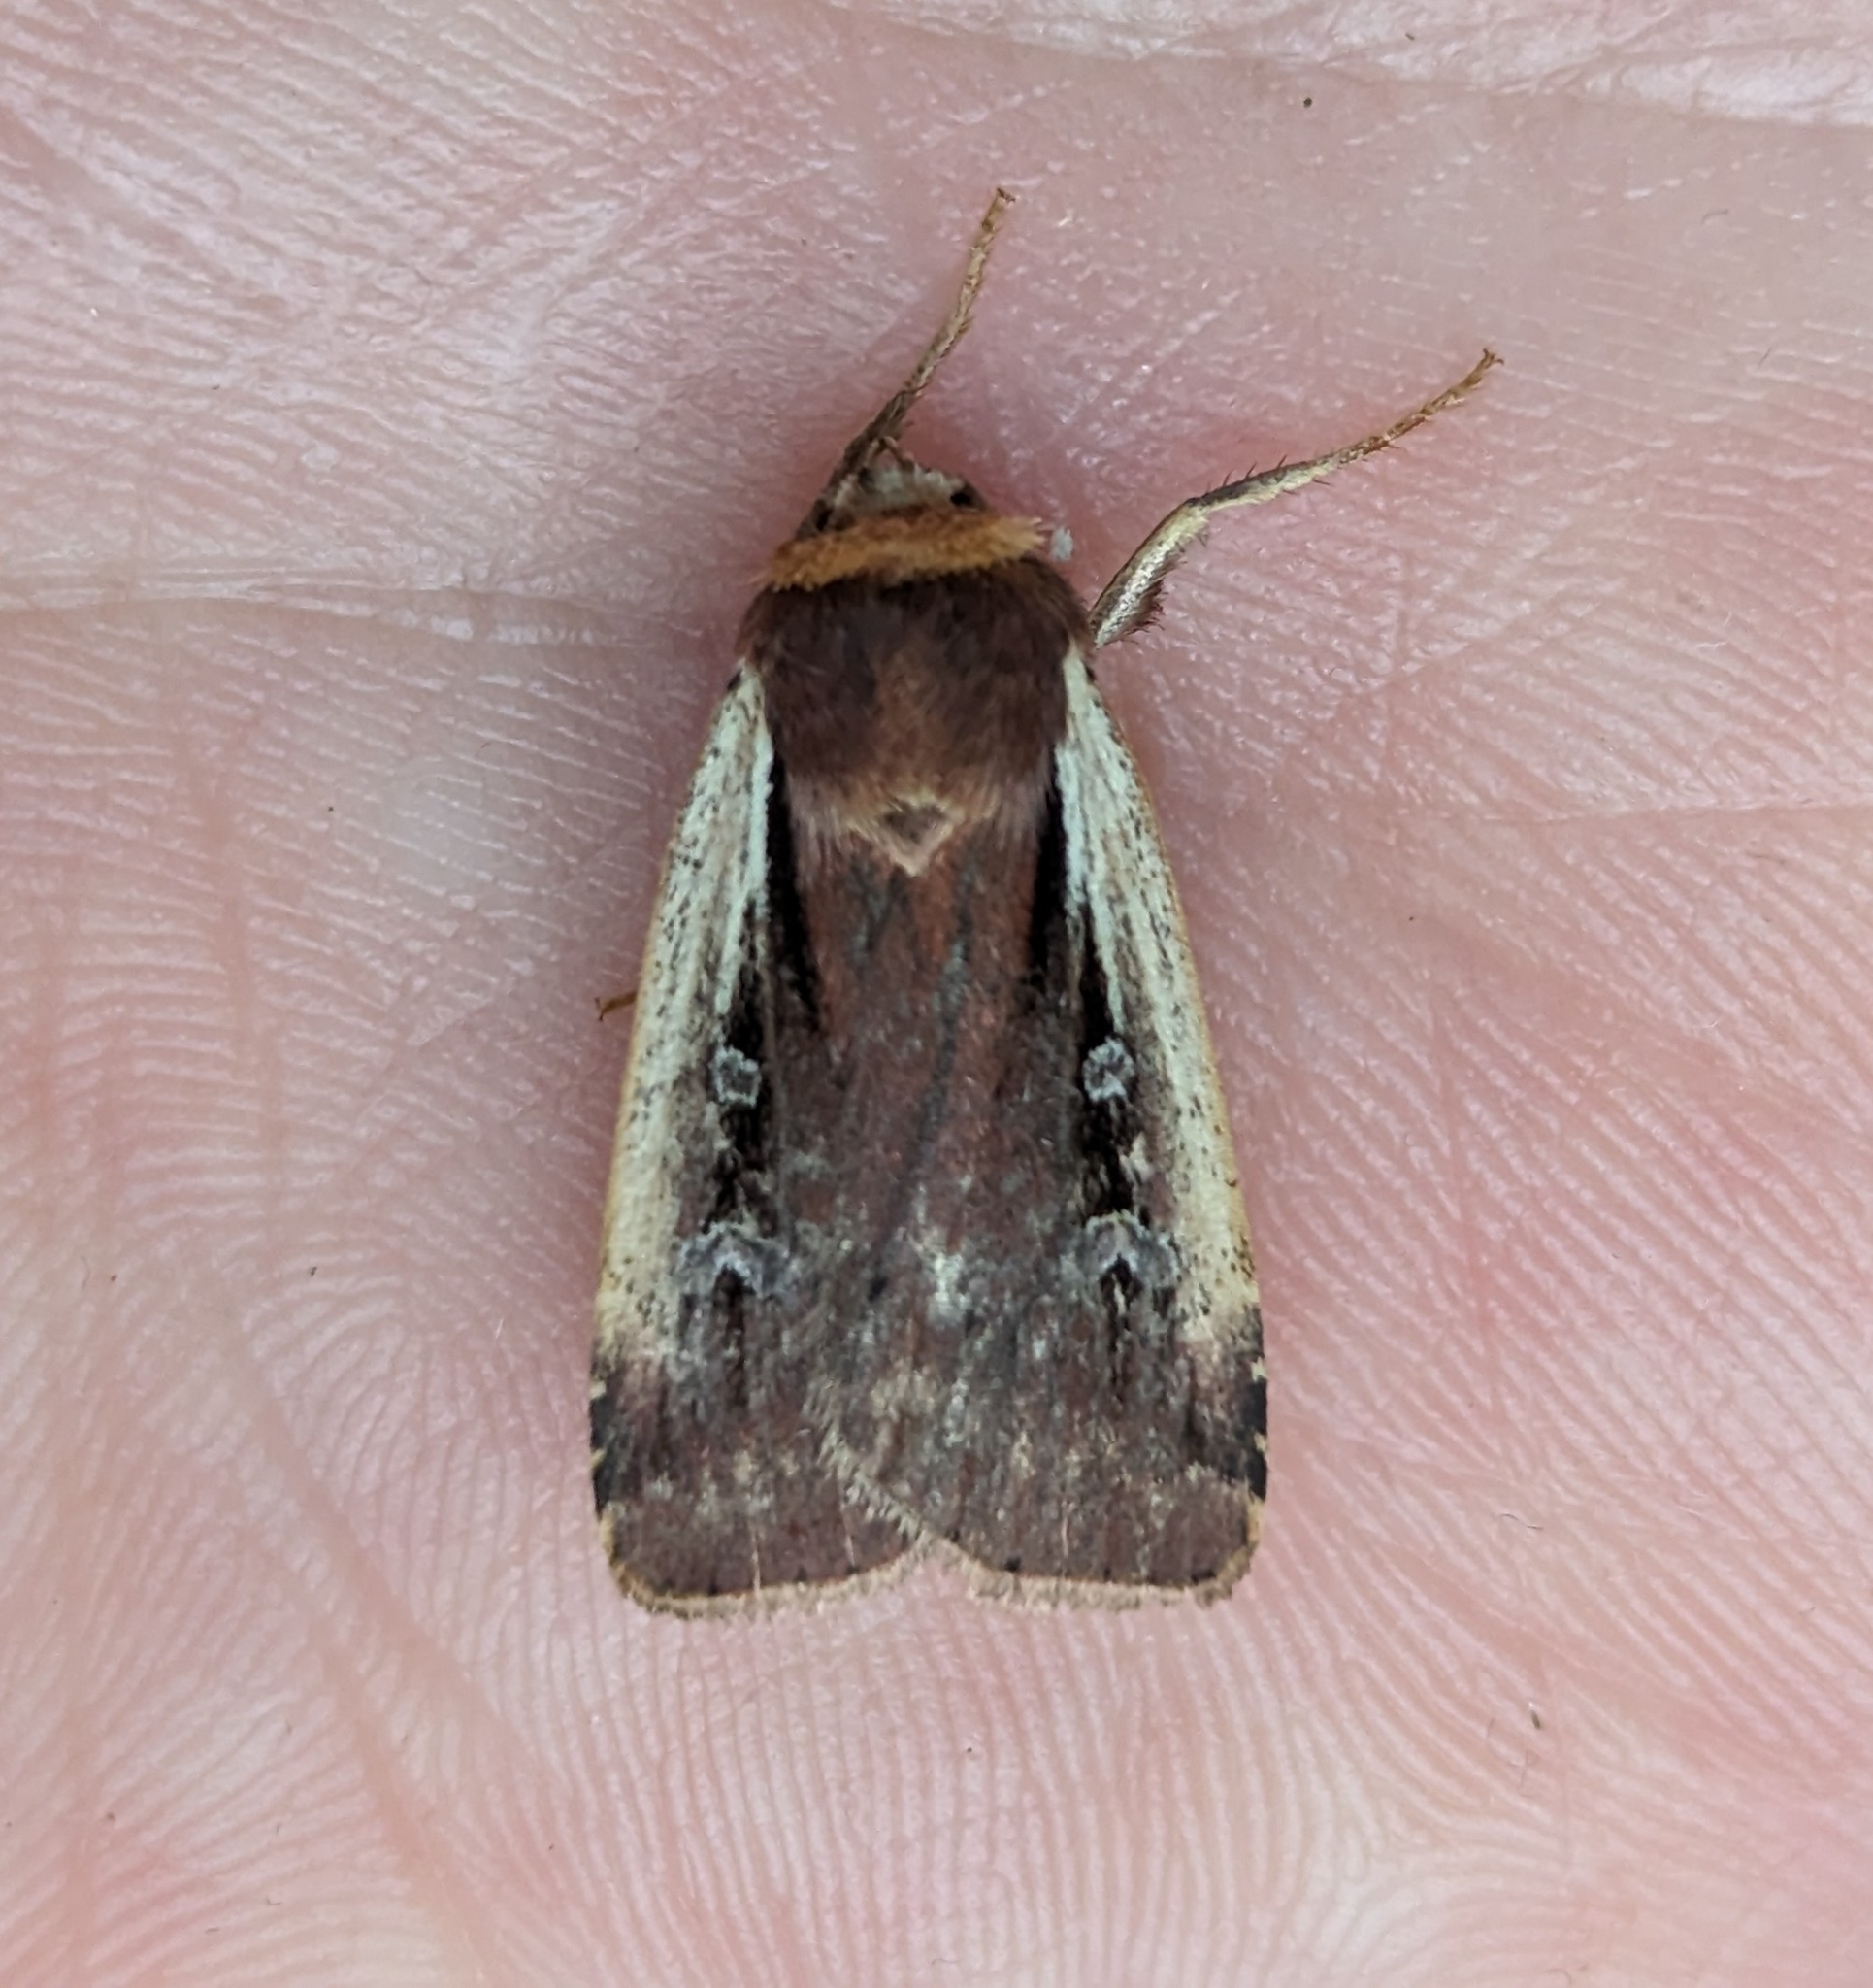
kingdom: Animalia
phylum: Arthropoda
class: Insecta
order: Lepidoptera
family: Noctuidae
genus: Ochropleura
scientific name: Ochropleura implecta
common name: Flame-shouldered dart
